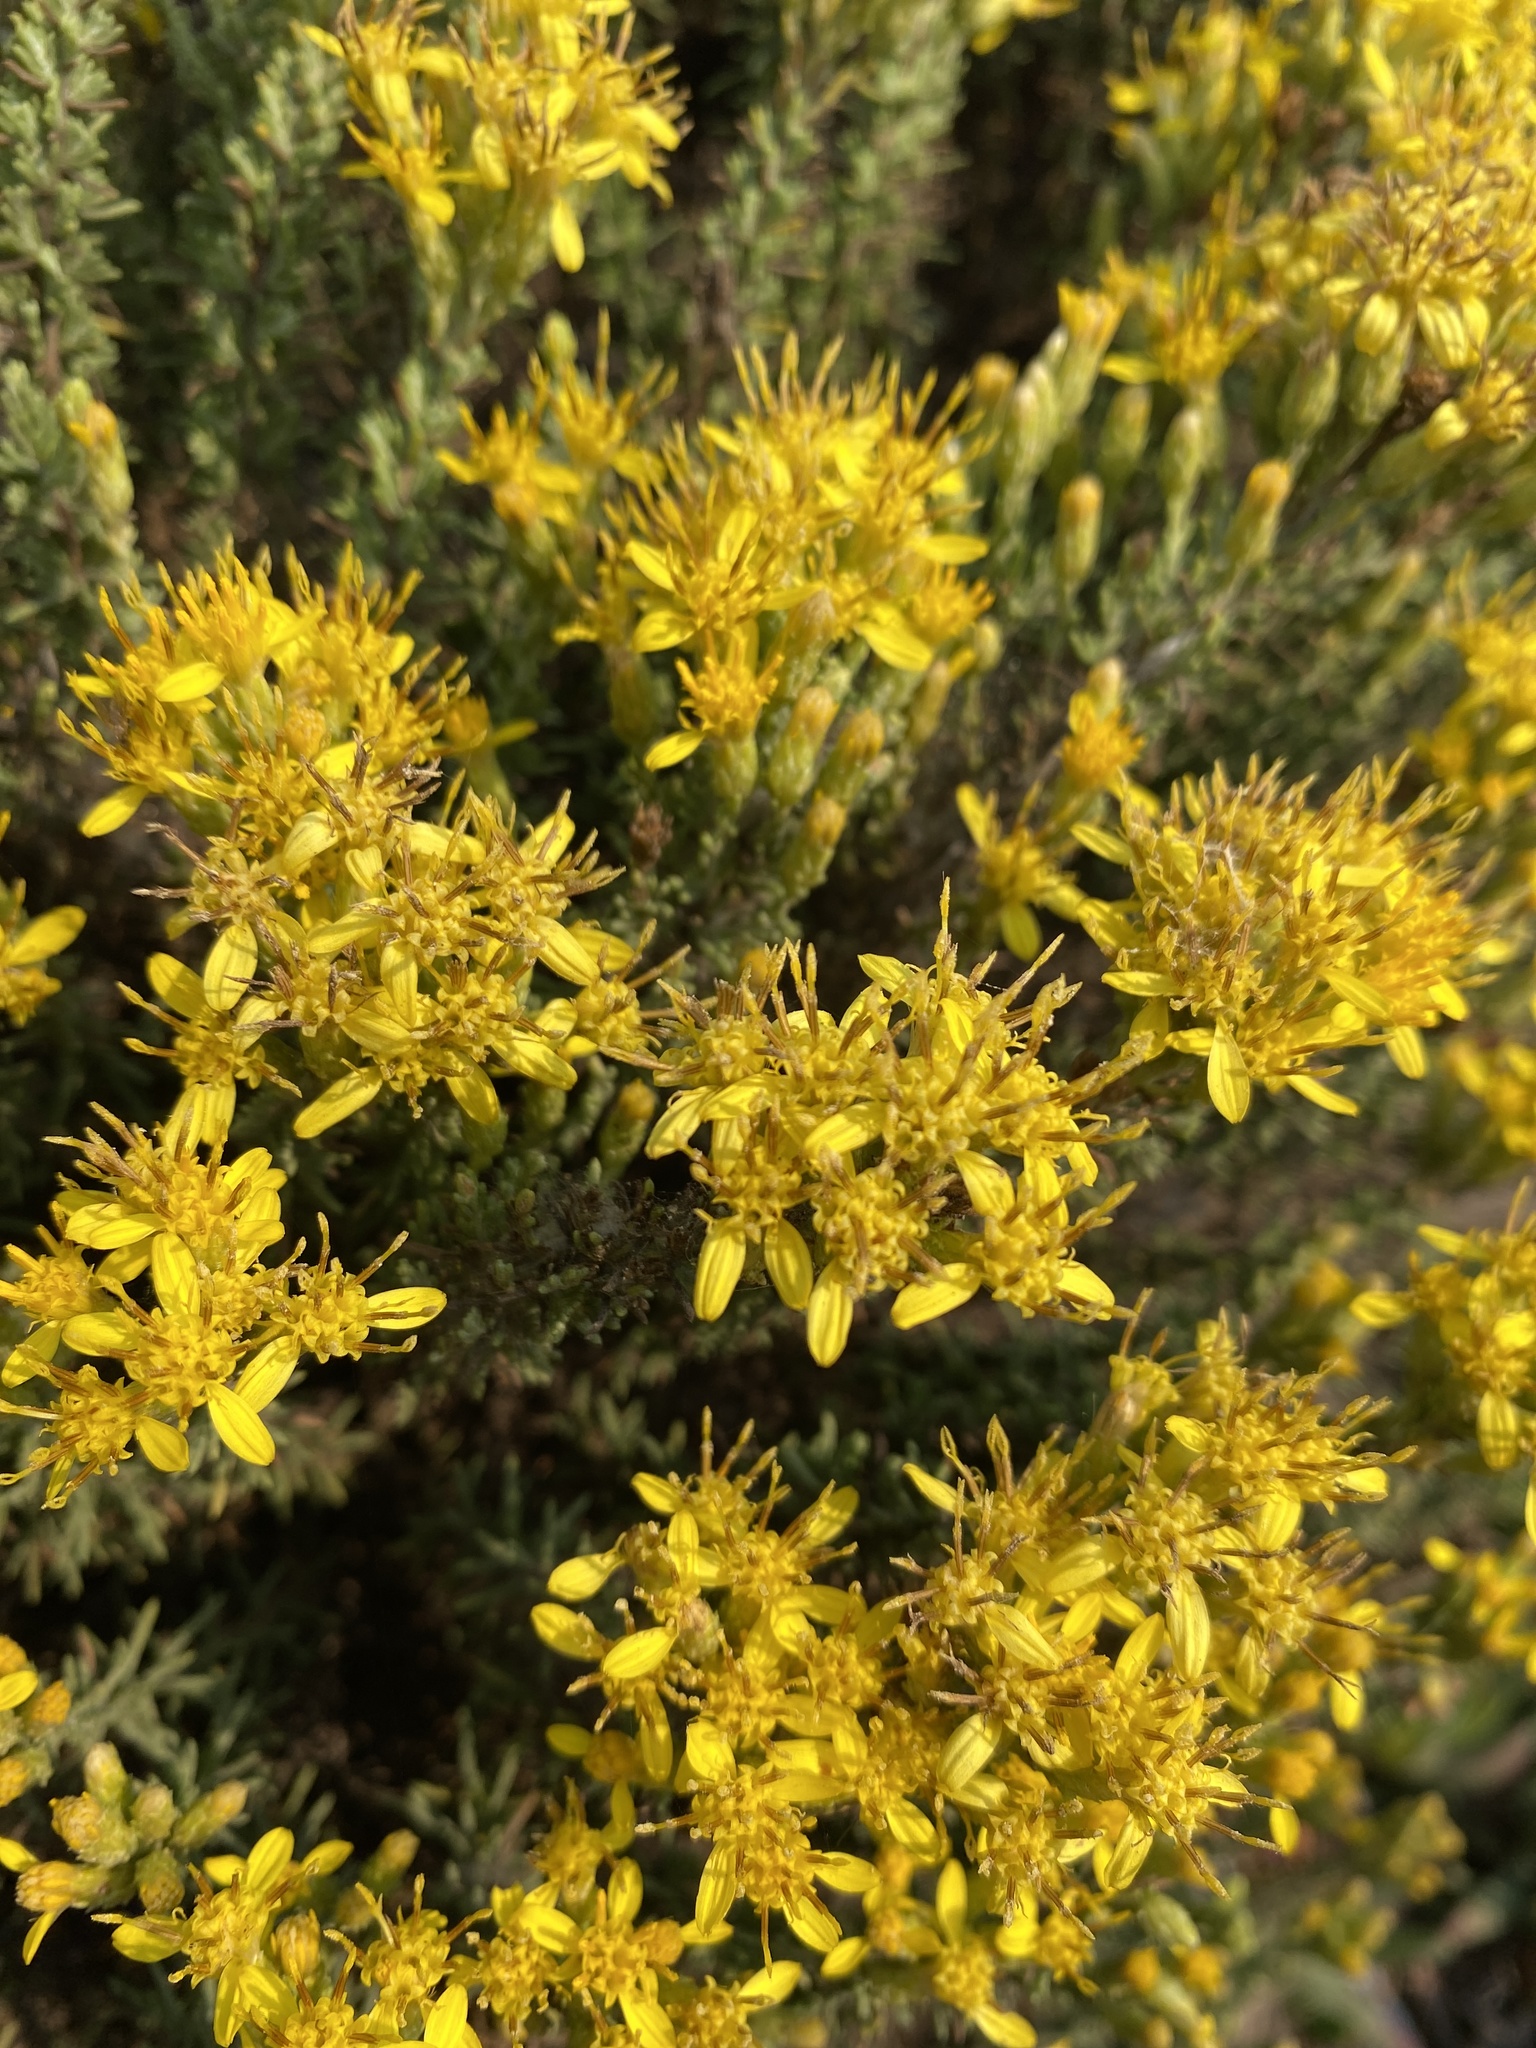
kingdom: Plantae
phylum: Tracheophyta
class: Magnoliopsida
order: Asterales
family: Asteraceae
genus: Ericameria
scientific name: Ericameria ericoides
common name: California goldenbush
